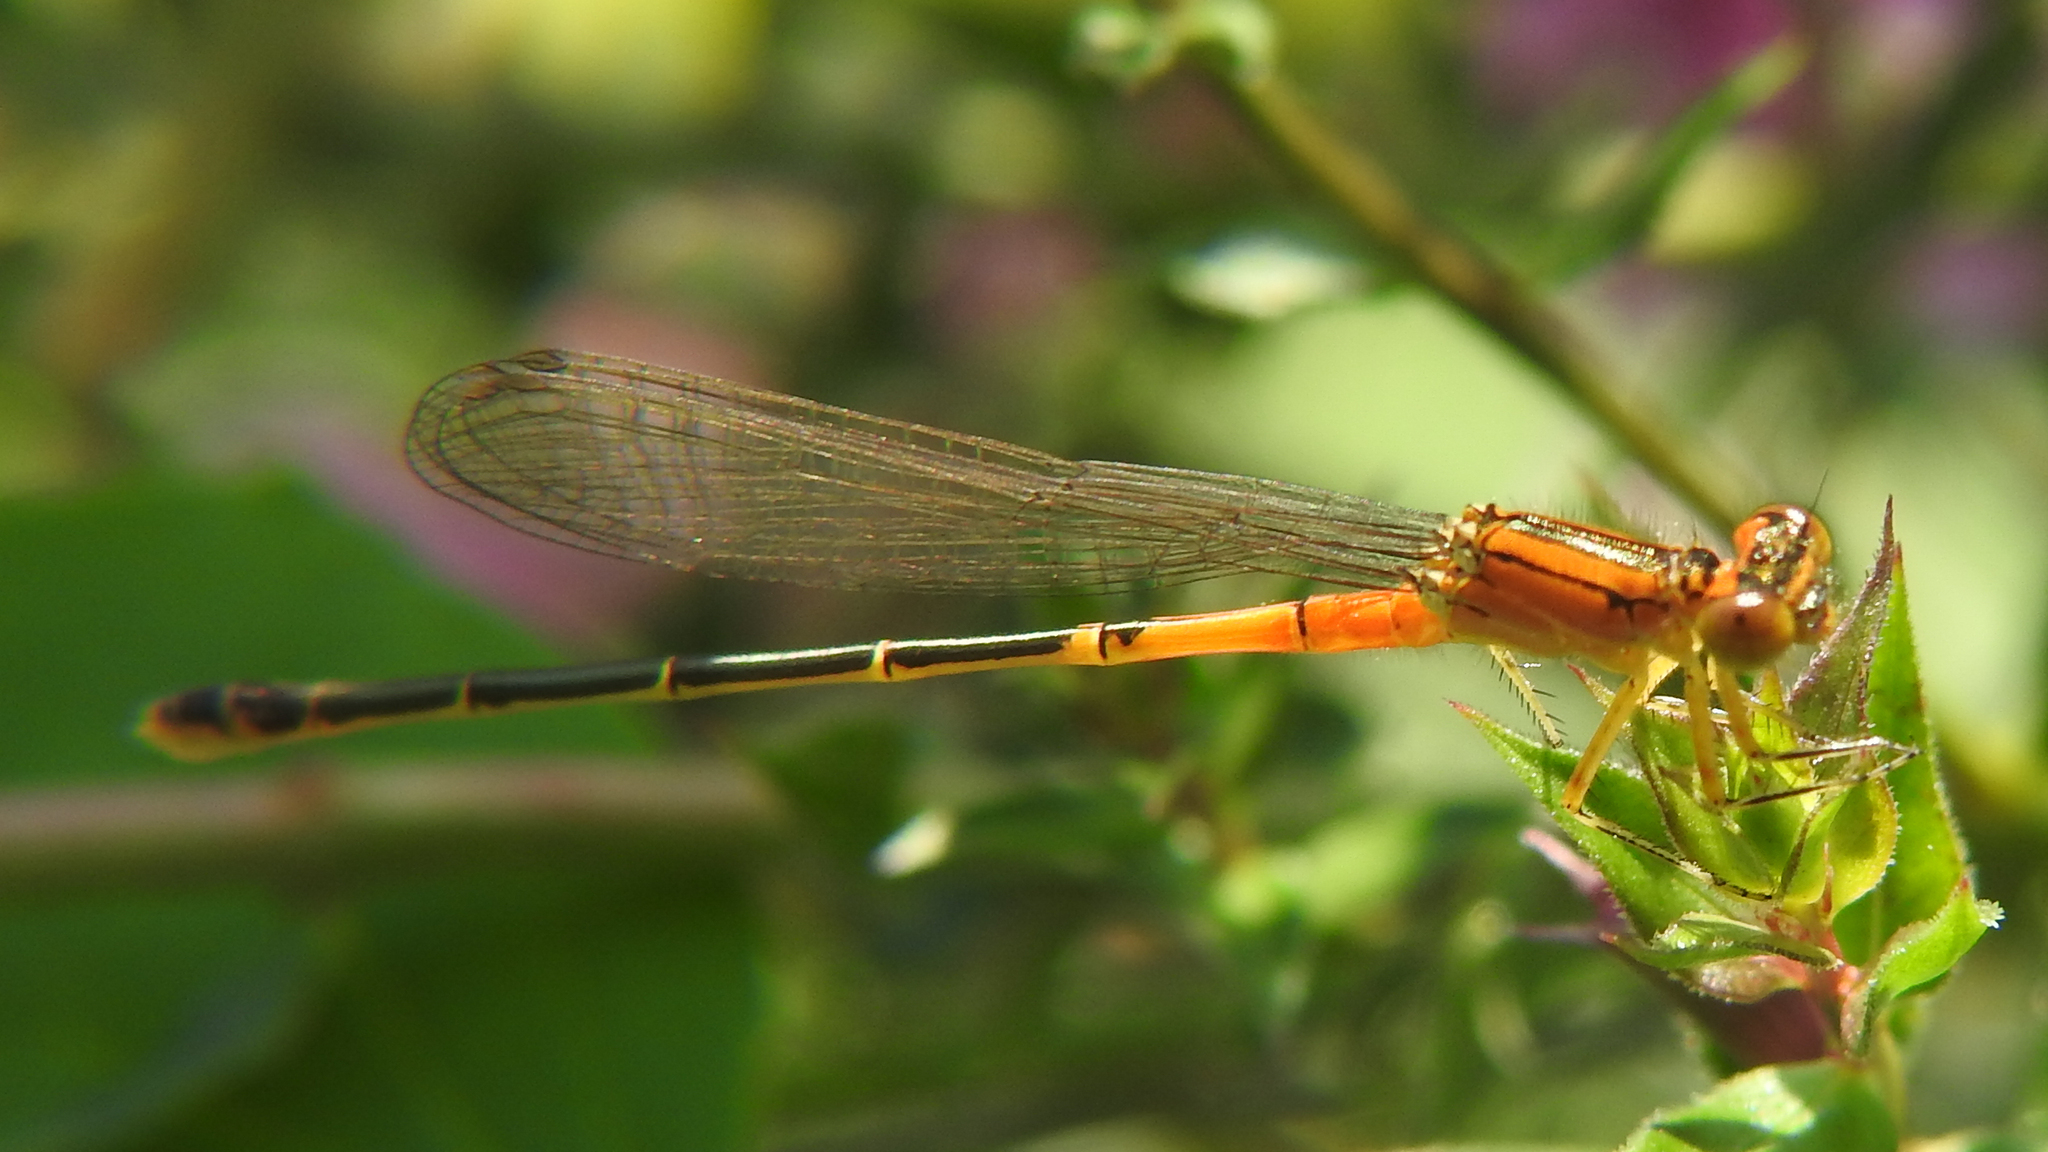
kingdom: Animalia
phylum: Arthropoda
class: Insecta
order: Odonata
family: Coenagrionidae
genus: Ischnura
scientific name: Ischnura verticalis
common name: Eastern forktail
